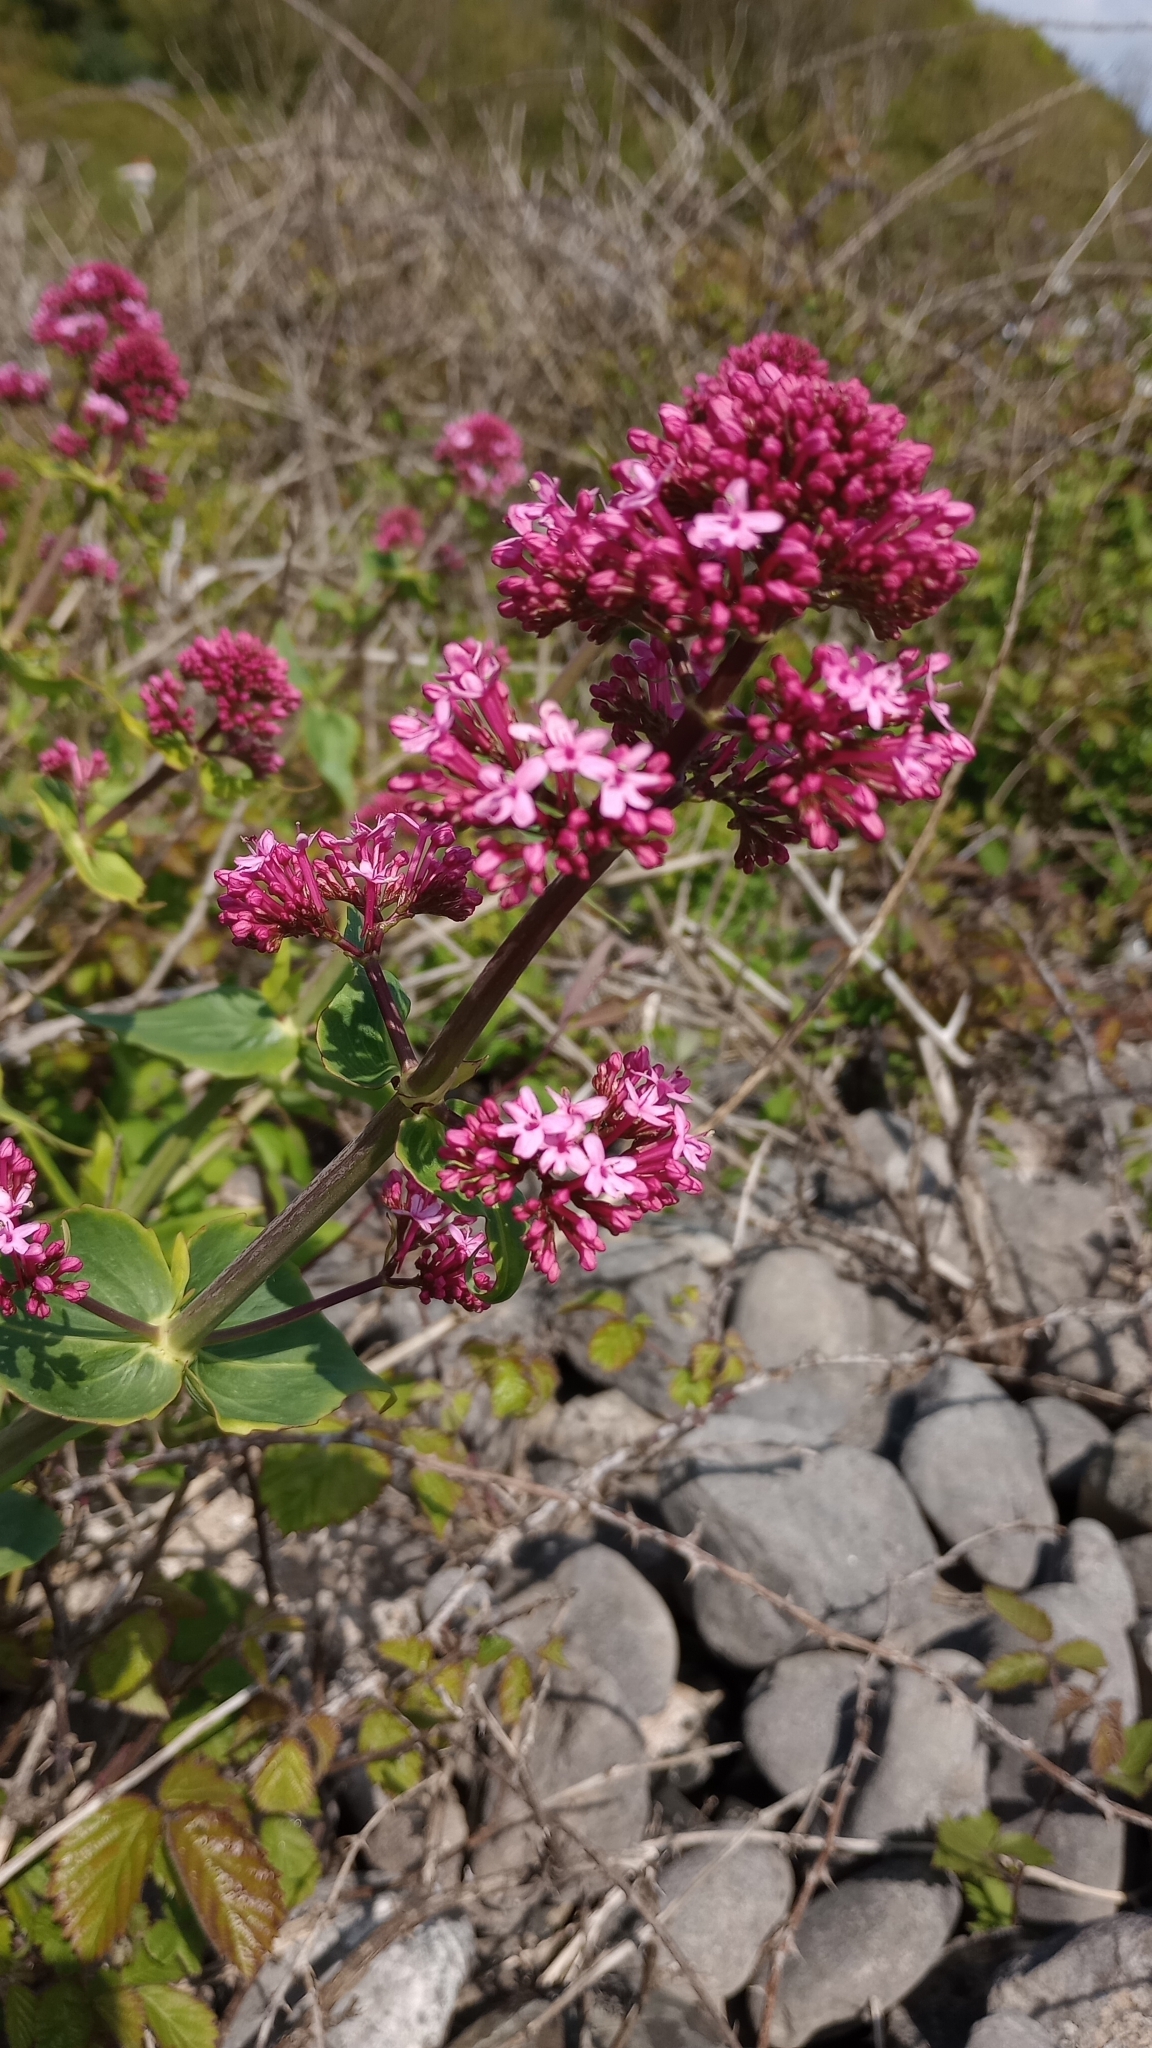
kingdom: Plantae
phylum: Tracheophyta
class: Magnoliopsida
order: Dipsacales
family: Caprifoliaceae
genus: Centranthus
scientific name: Centranthus ruber
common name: Red valerian
